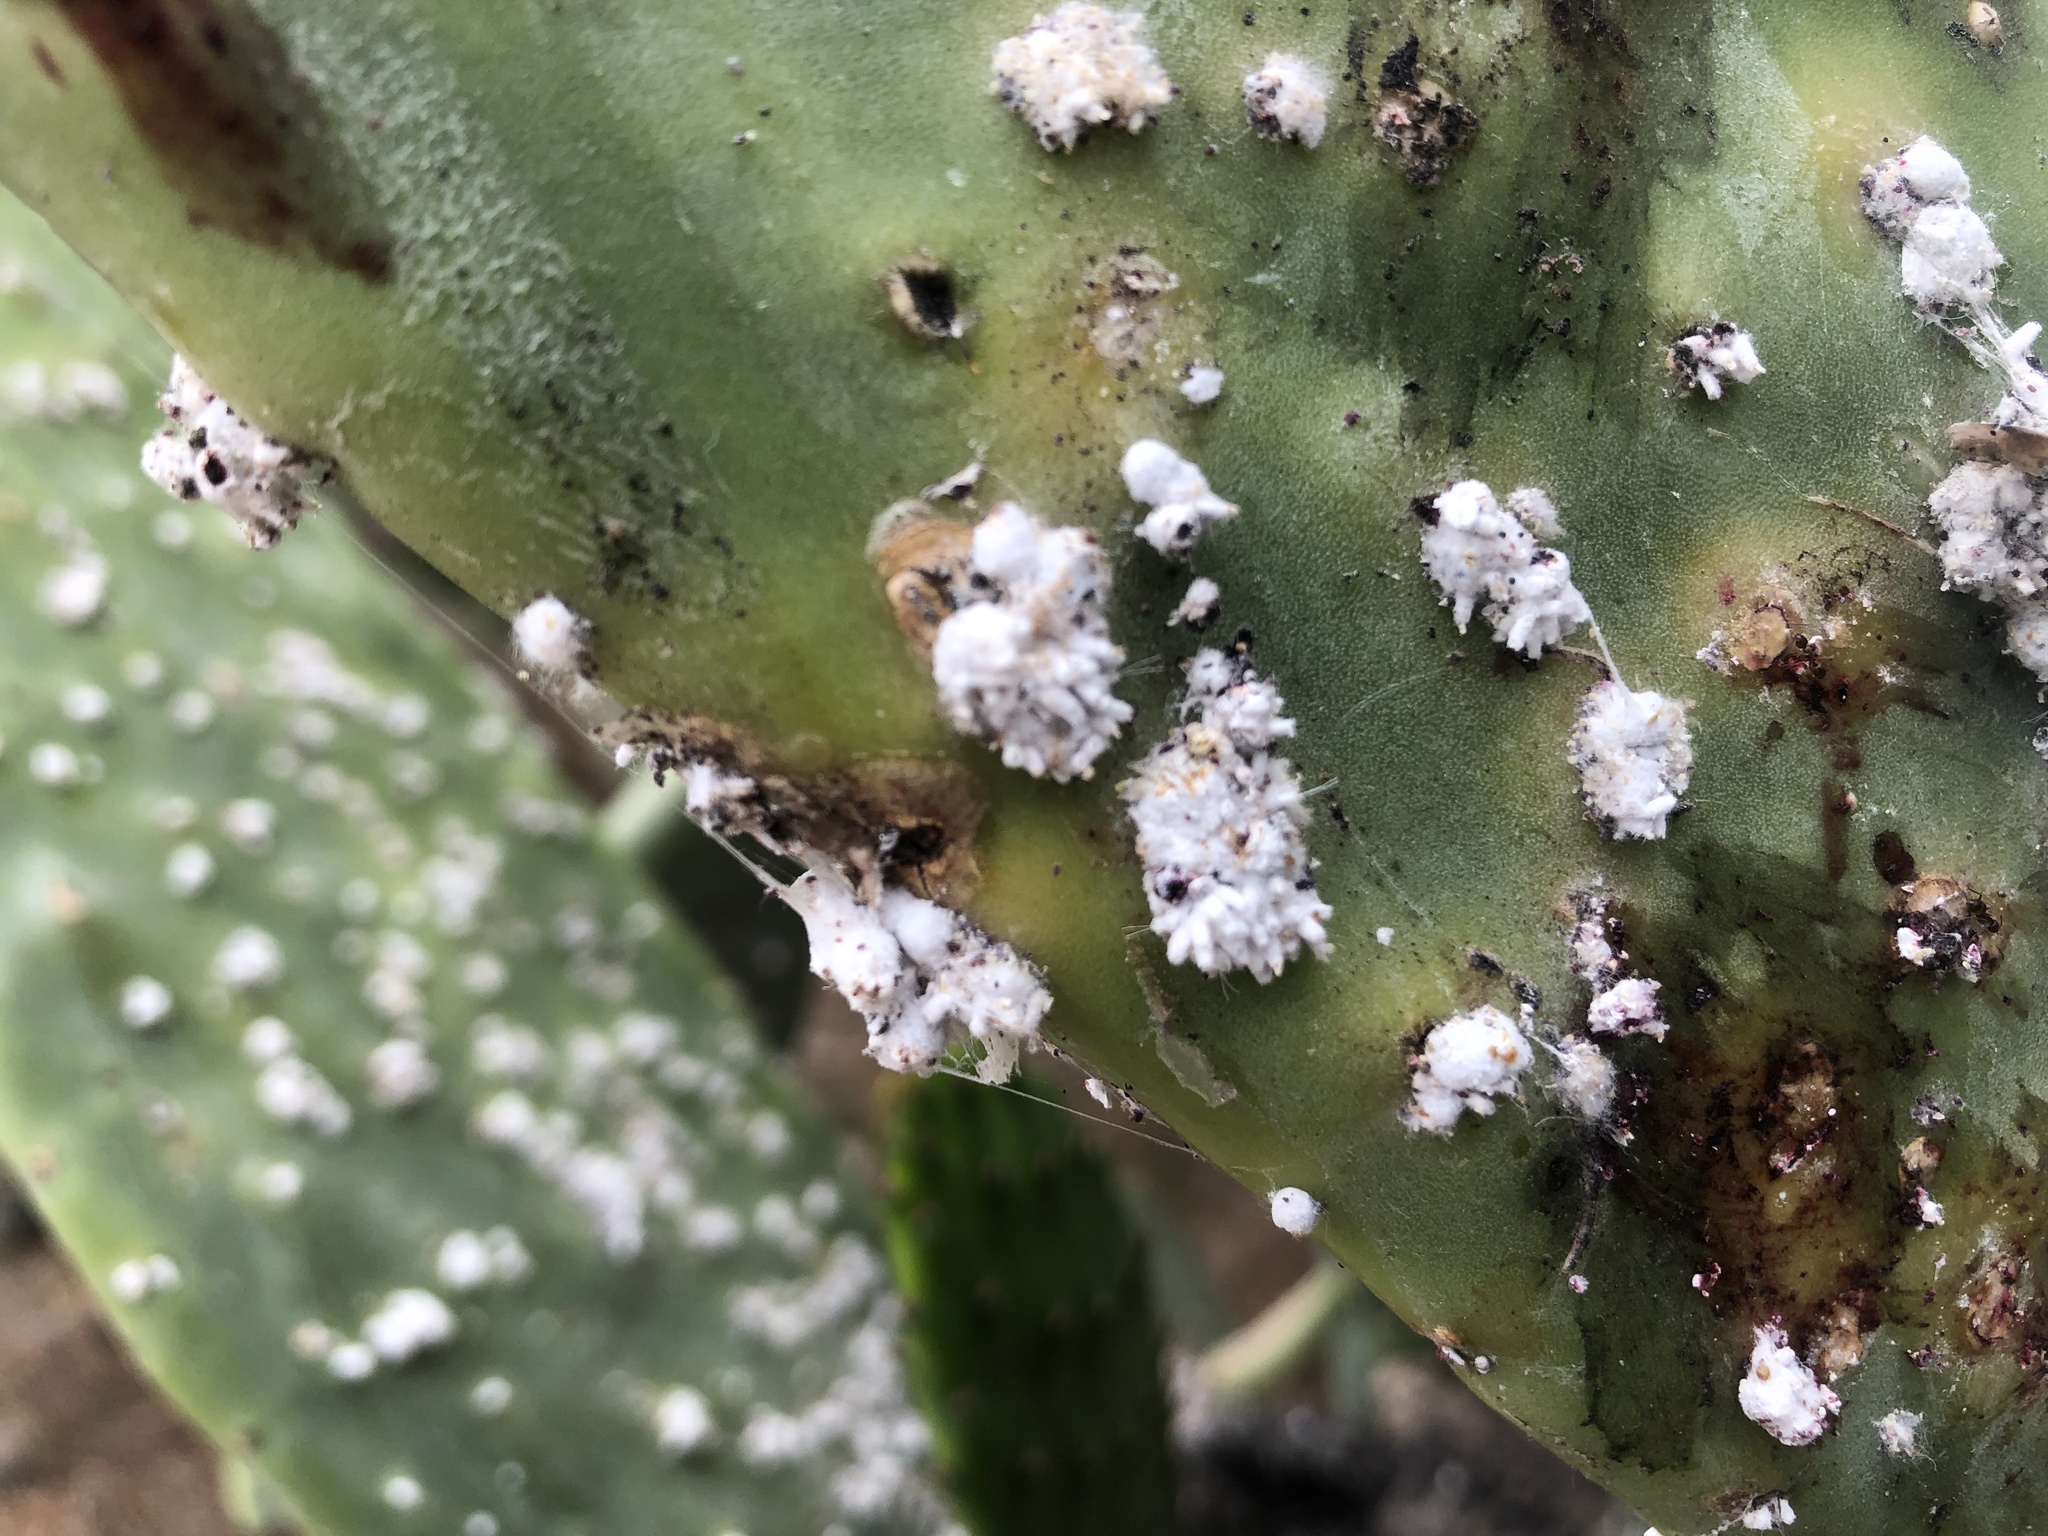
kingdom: Animalia
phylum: Arthropoda
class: Insecta
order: Hemiptera
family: Dactylopiidae
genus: Dactylopius
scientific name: Dactylopius coccus
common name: Cochineal
